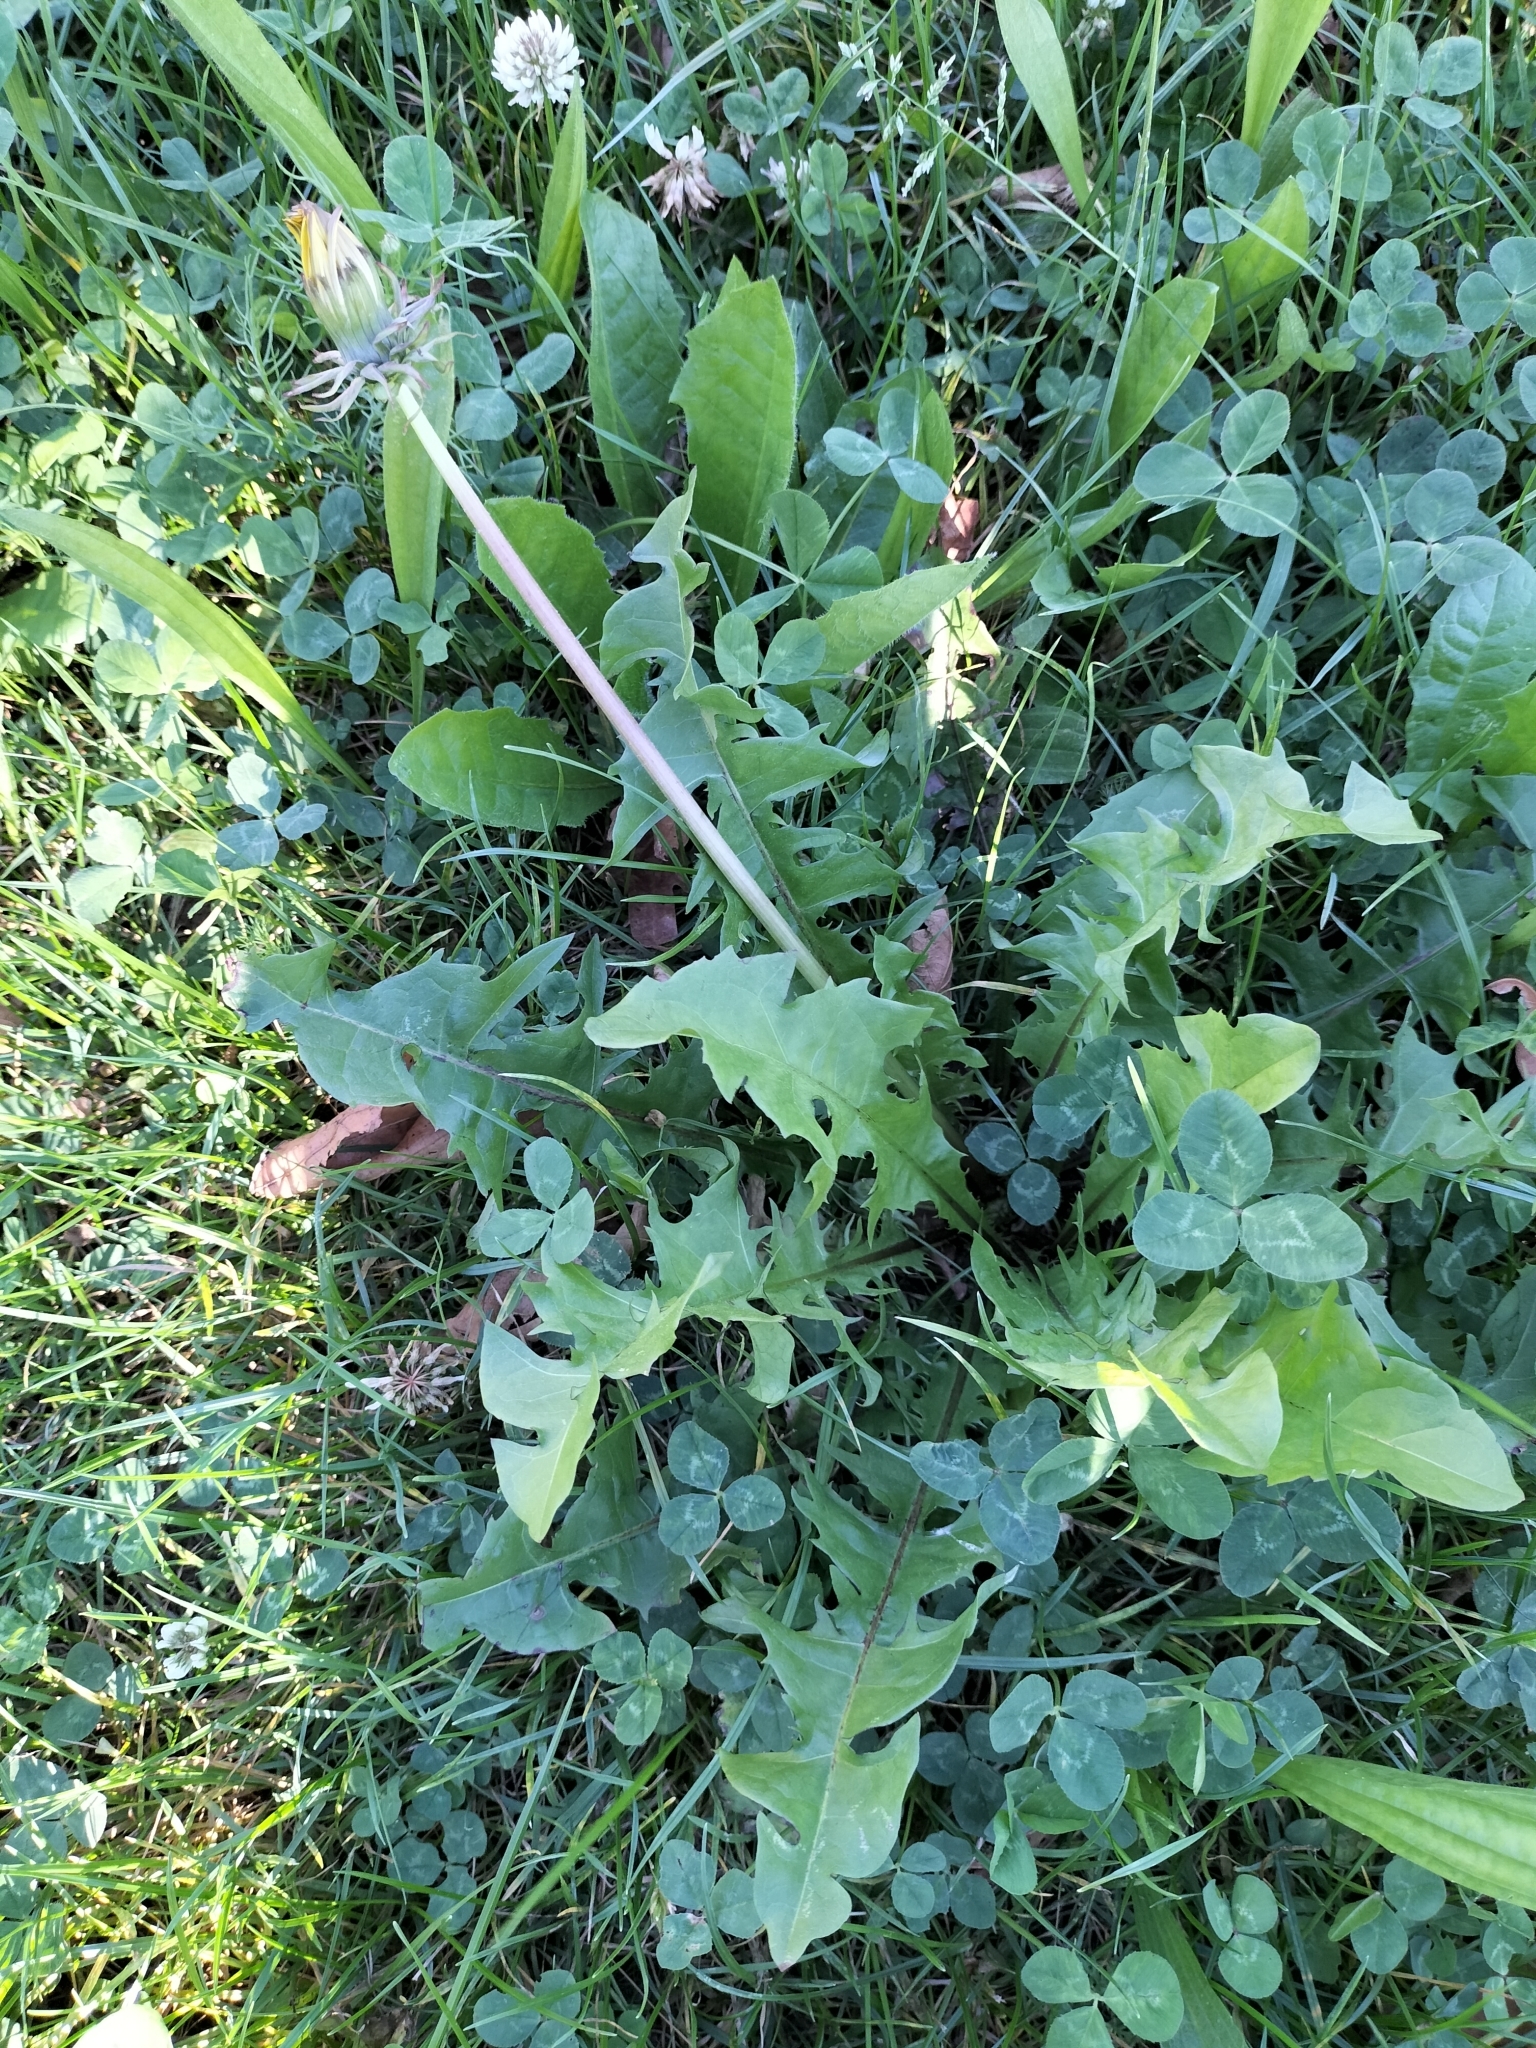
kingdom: Plantae
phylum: Tracheophyta
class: Magnoliopsida
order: Asterales
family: Asteraceae
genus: Taraxacum
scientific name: Taraxacum officinale
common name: Common dandelion
